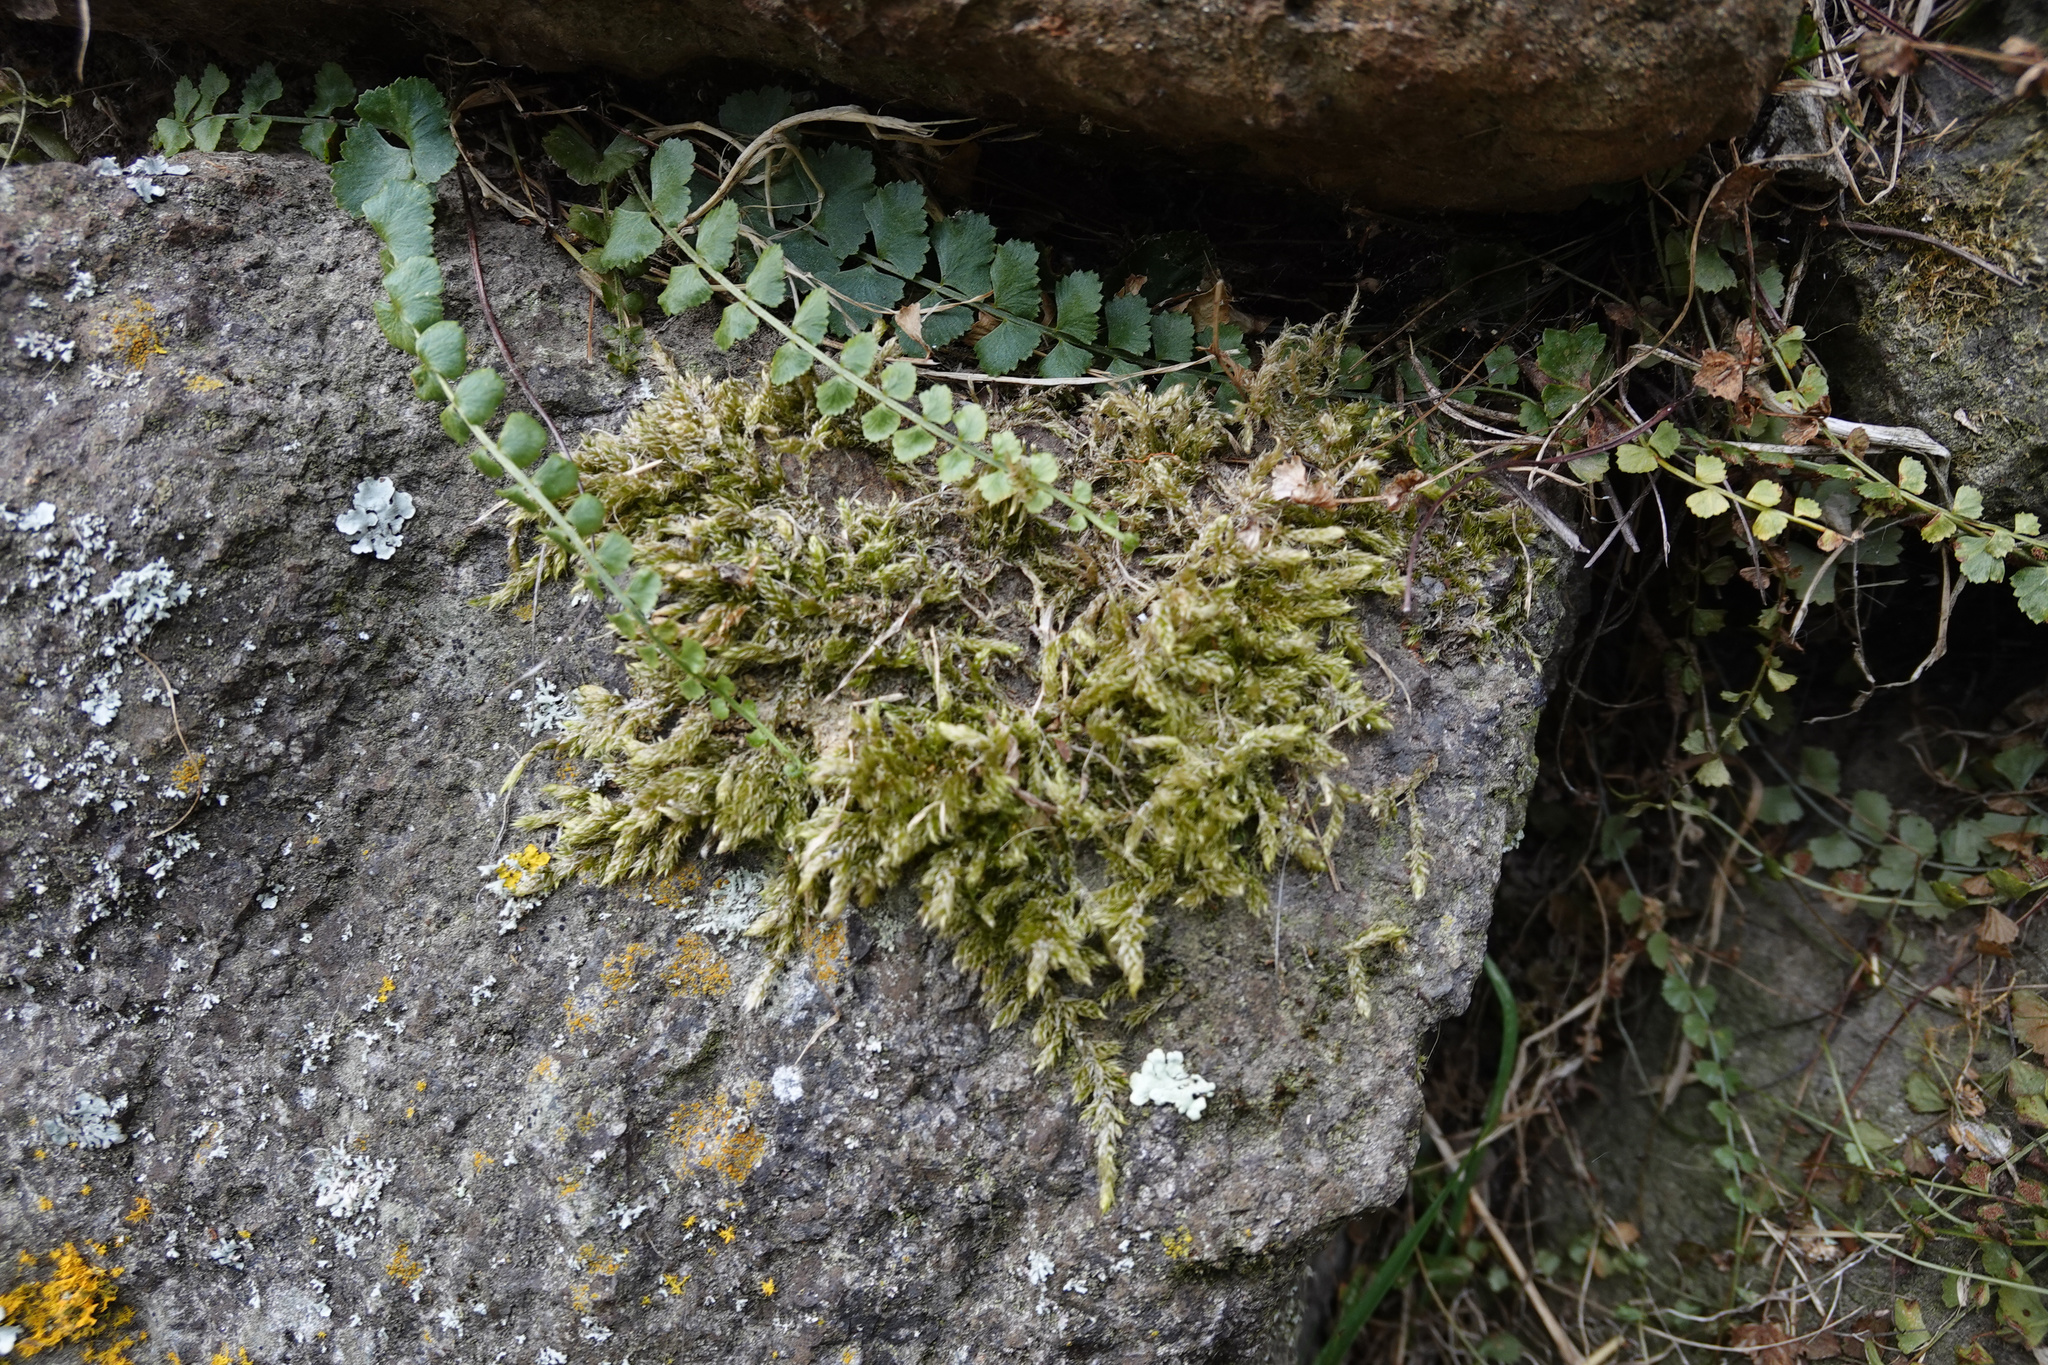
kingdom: Plantae
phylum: Tracheophyta
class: Polypodiopsida
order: Polypodiales
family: Aspleniaceae
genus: Asplenium
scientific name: Asplenium flabellifolium
